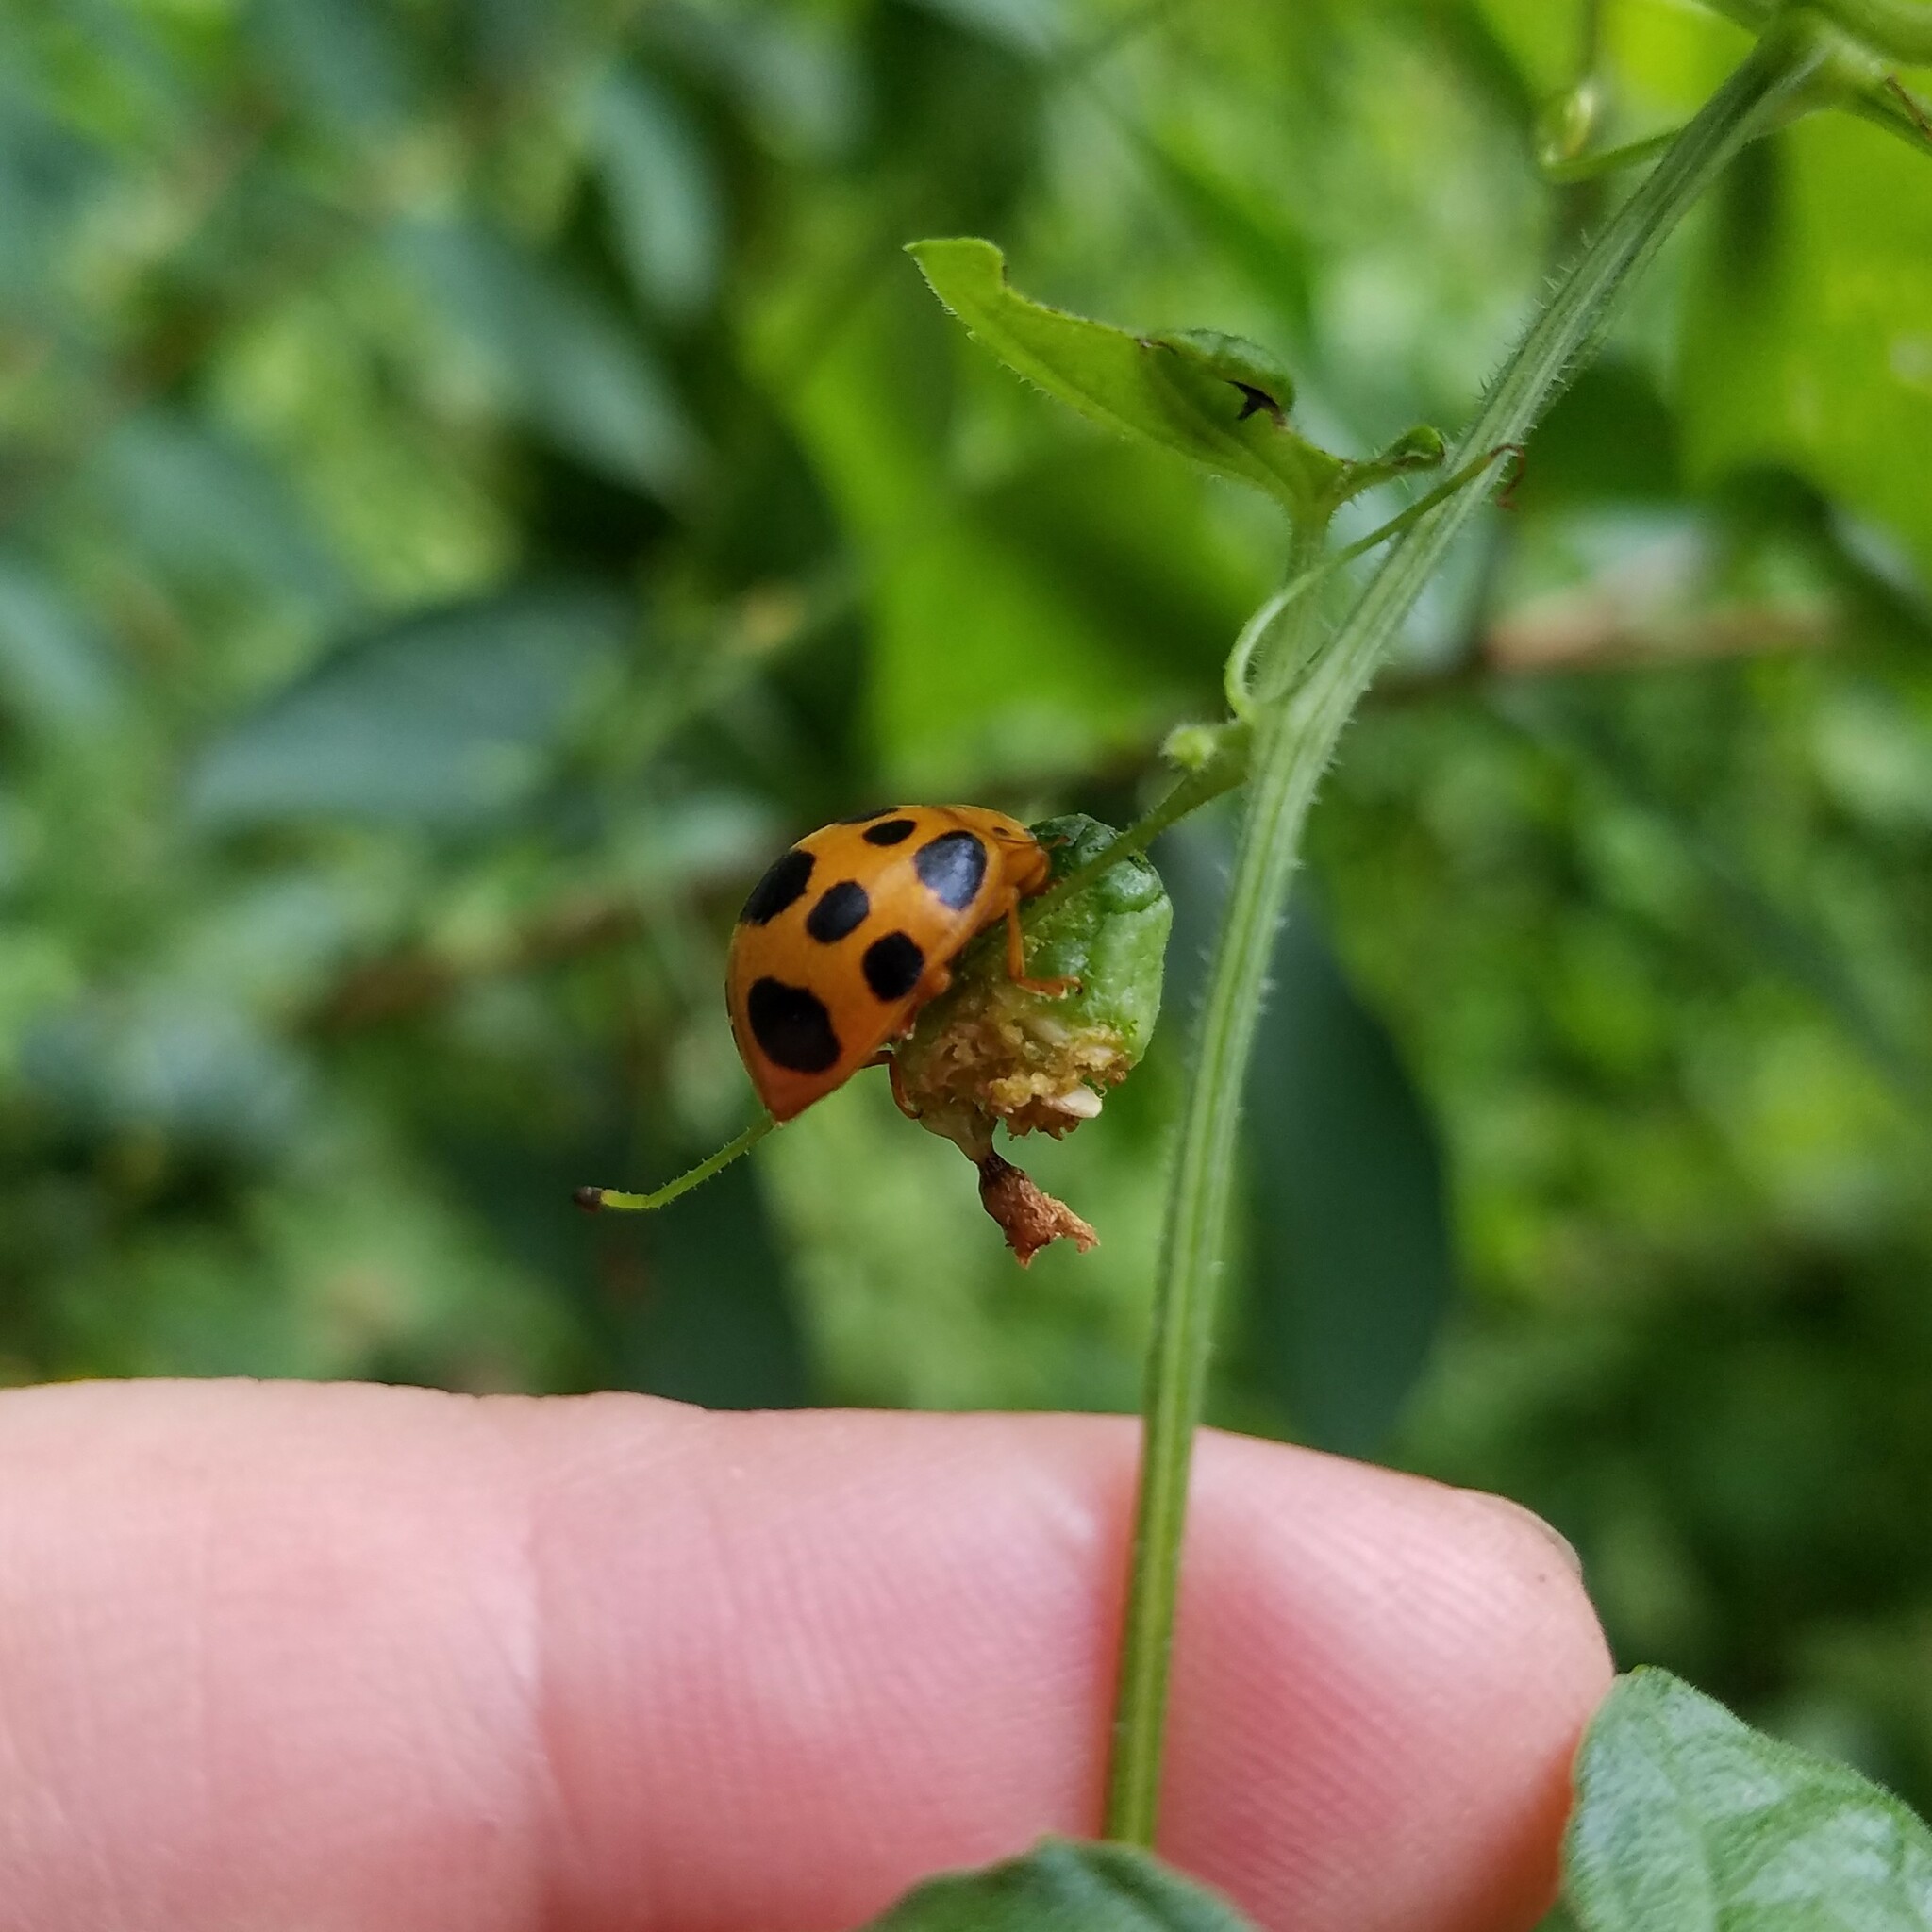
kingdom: Animalia
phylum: Arthropoda
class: Insecta
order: Coleoptera
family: Coccinellidae
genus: Epilachna
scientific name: Epilachna borealis
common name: Squash beetle
